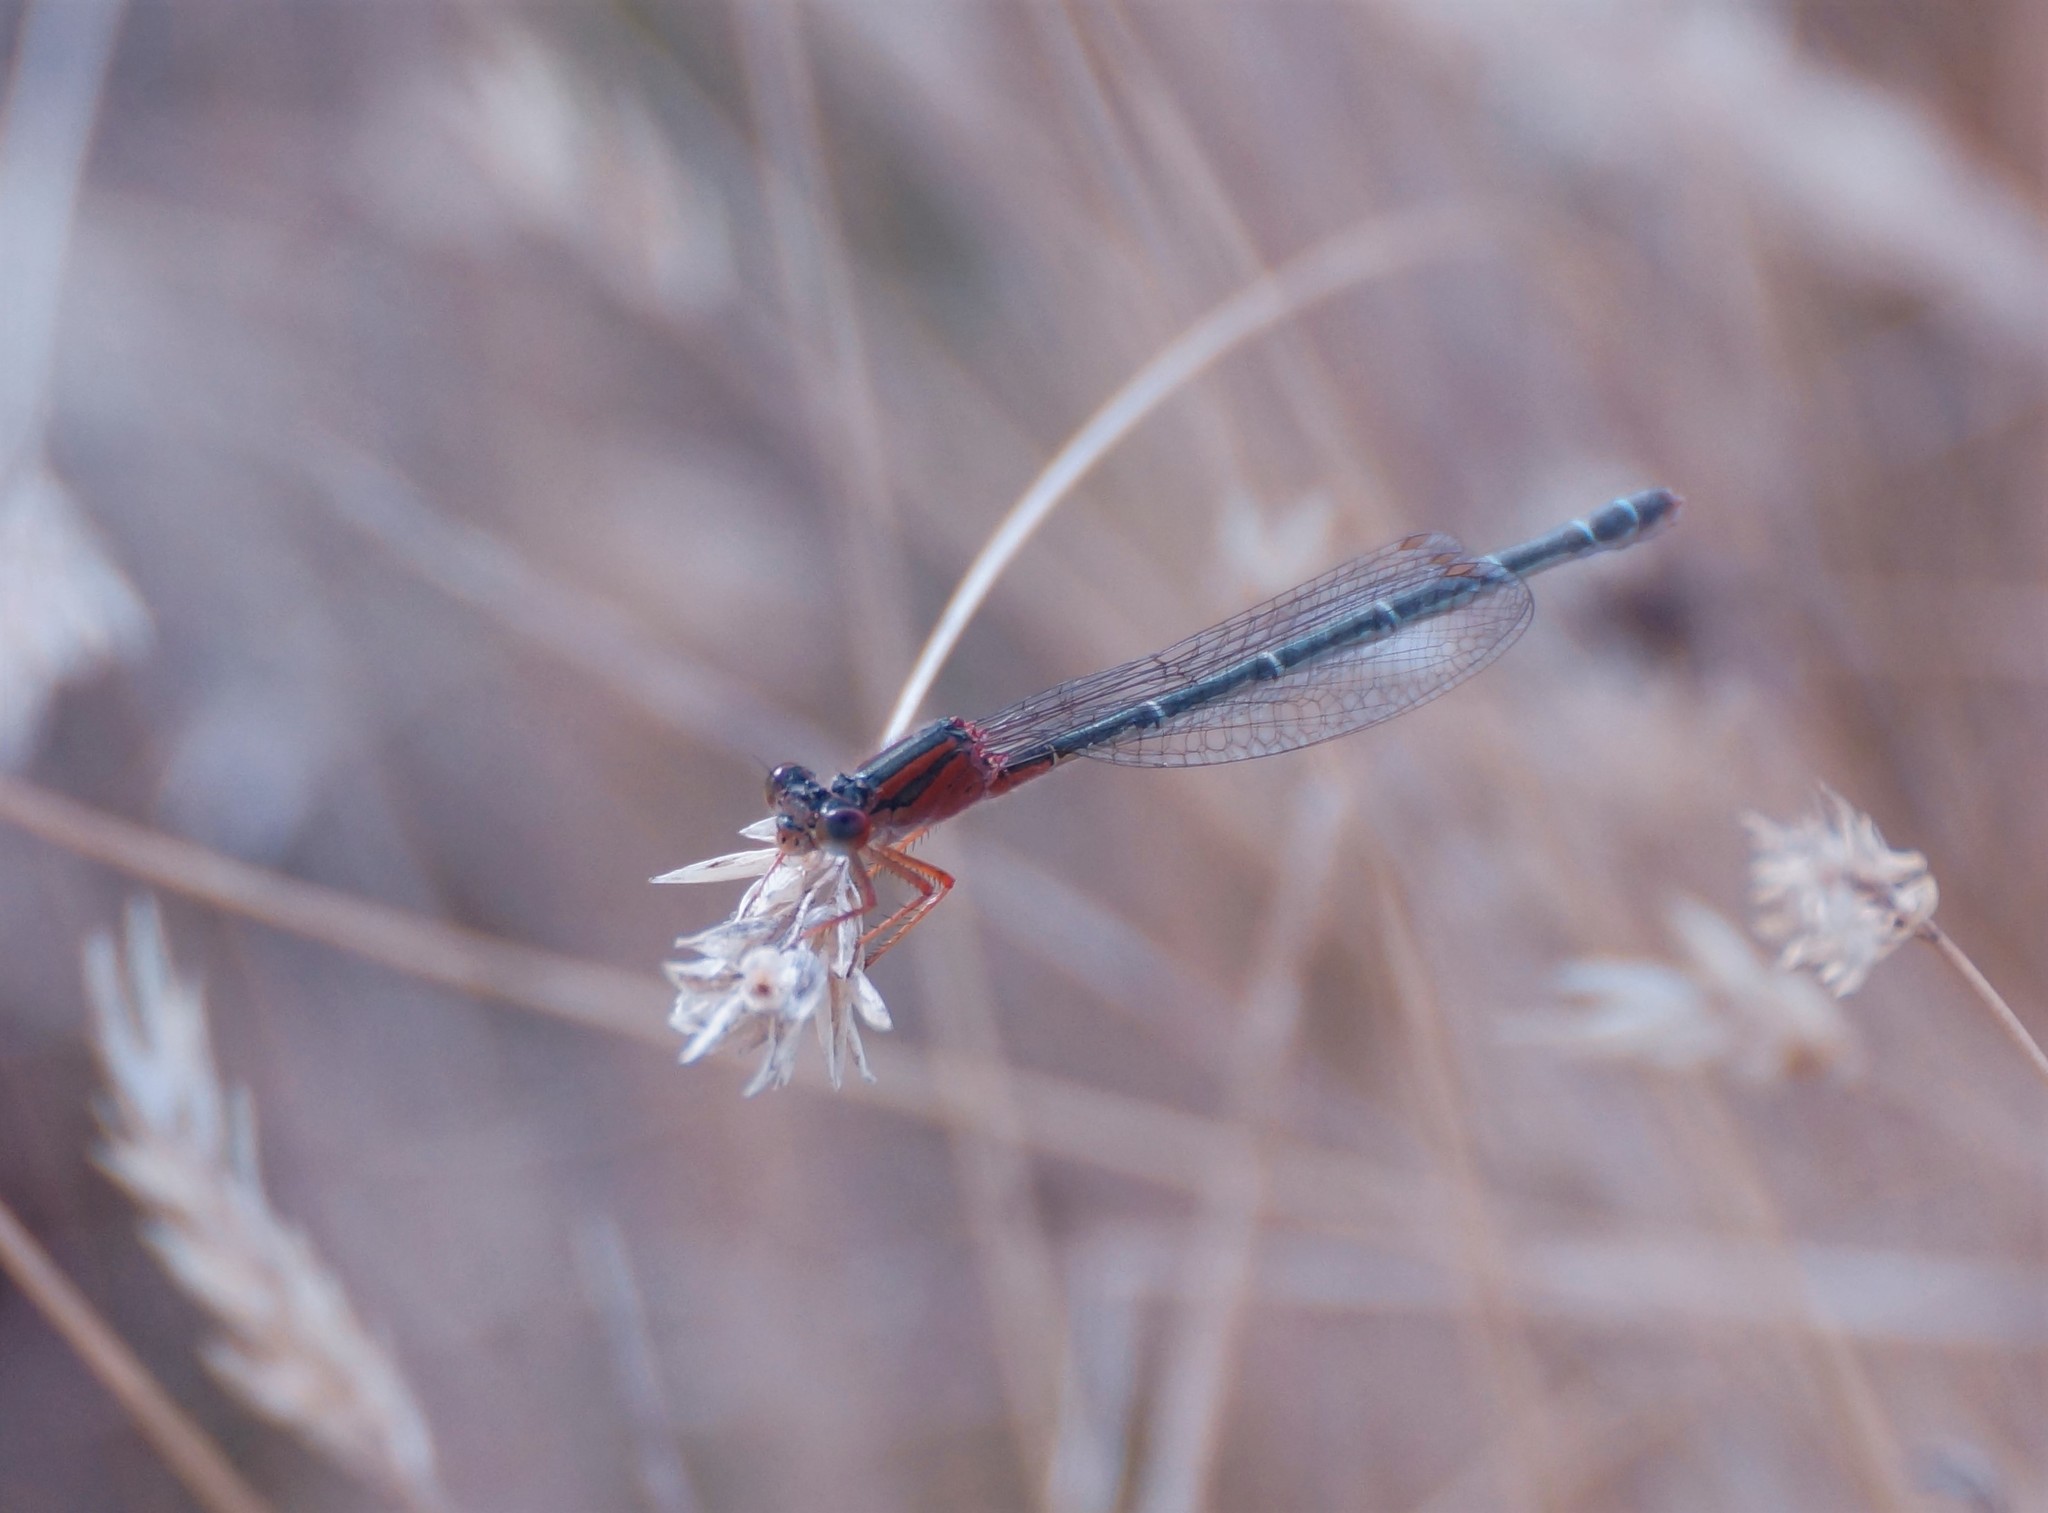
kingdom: Animalia
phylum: Arthropoda
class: Insecta
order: Odonata
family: Coenagrionidae
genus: Xanthagrion
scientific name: Xanthagrion erythroneurum
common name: Red and blue damsel
